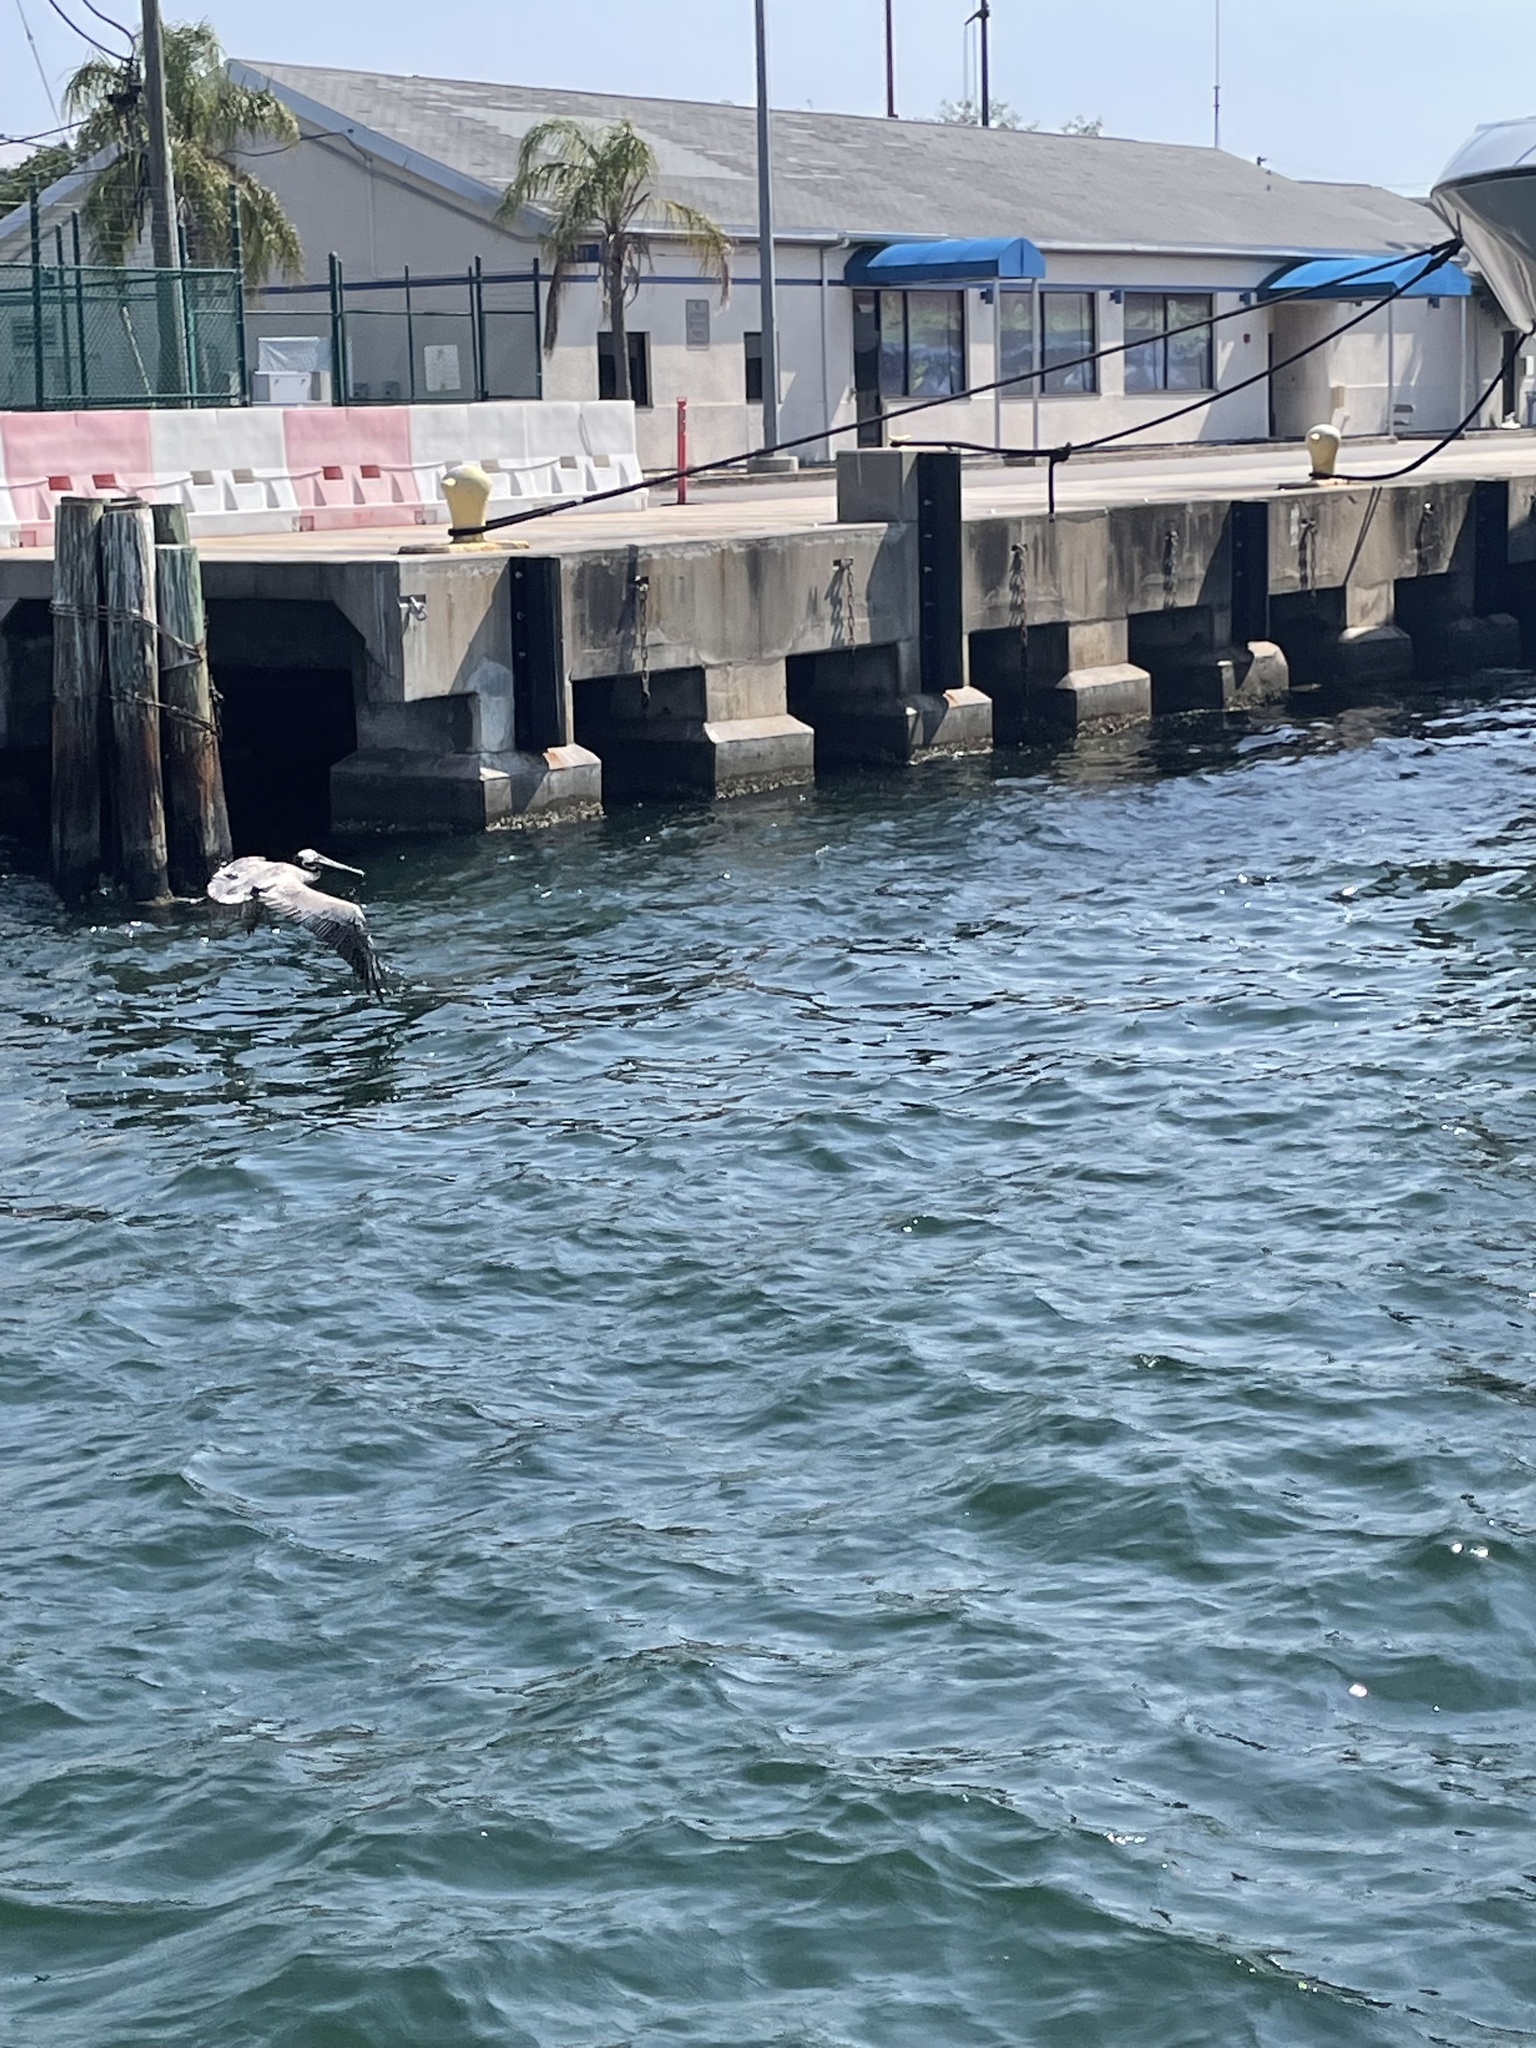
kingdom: Animalia
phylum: Chordata
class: Aves
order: Pelecaniformes
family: Pelecanidae
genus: Pelecanus
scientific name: Pelecanus occidentalis
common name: Brown pelican
